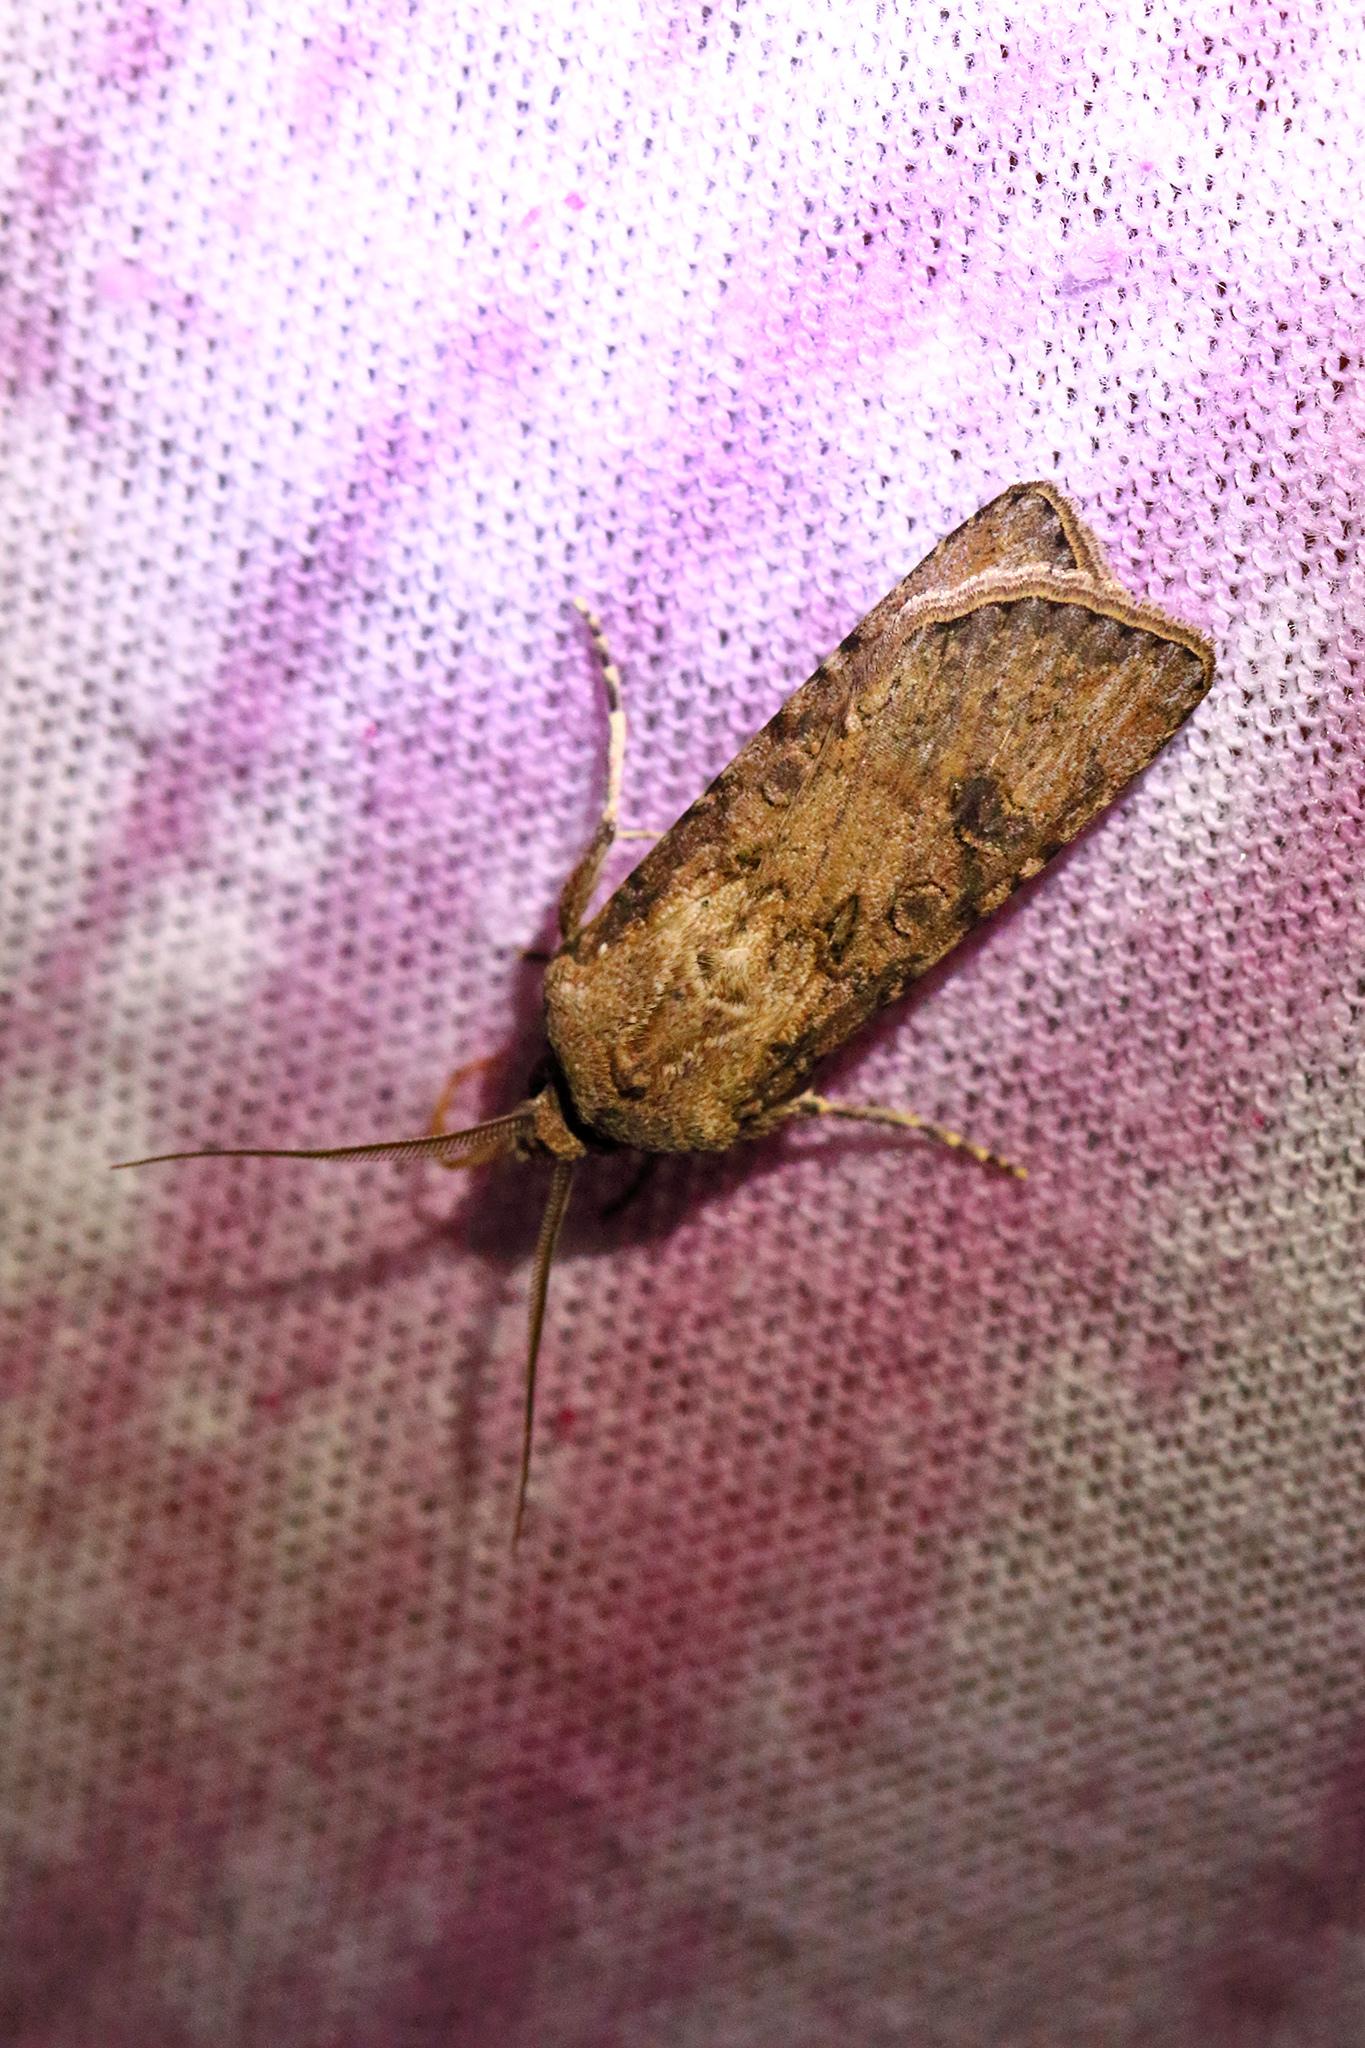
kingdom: Animalia
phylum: Arthropoda
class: Insecta
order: Lepidoptera
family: Noctuidae
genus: Agrotis
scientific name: Agrotis segetum
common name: Turnip moth
